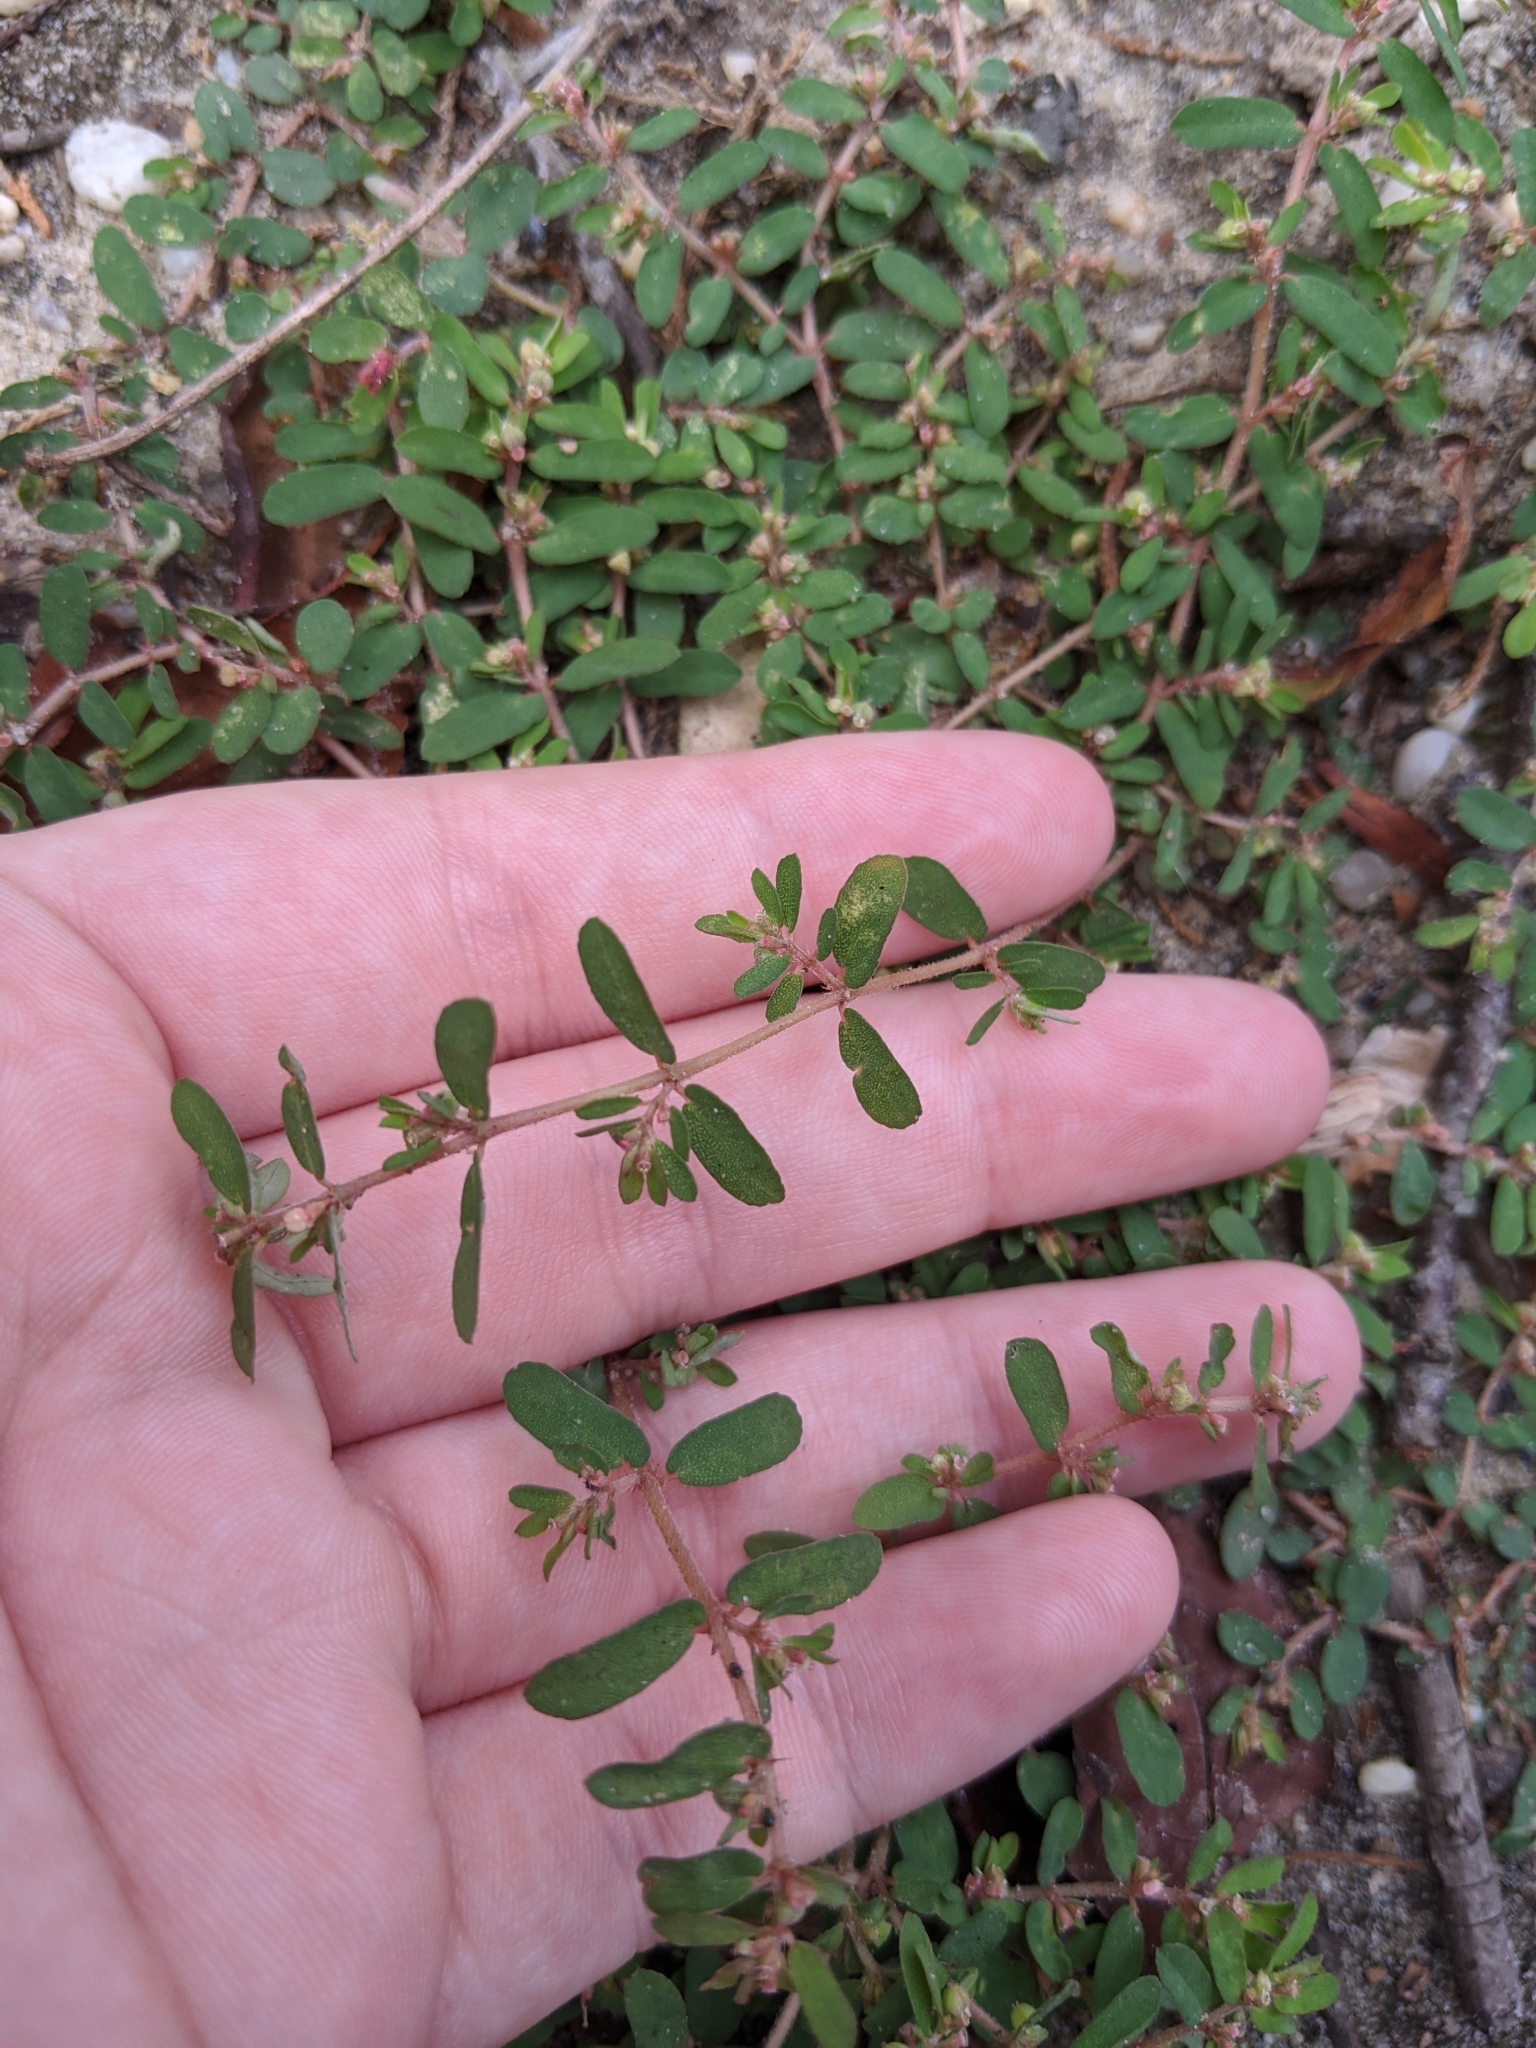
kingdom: Plantae
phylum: Tracheophyta
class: Magnoliopsida
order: Malpighiales
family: Euphorbiaceae
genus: Euphorbia
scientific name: Euphorbia maculata
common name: Spotted spurge
